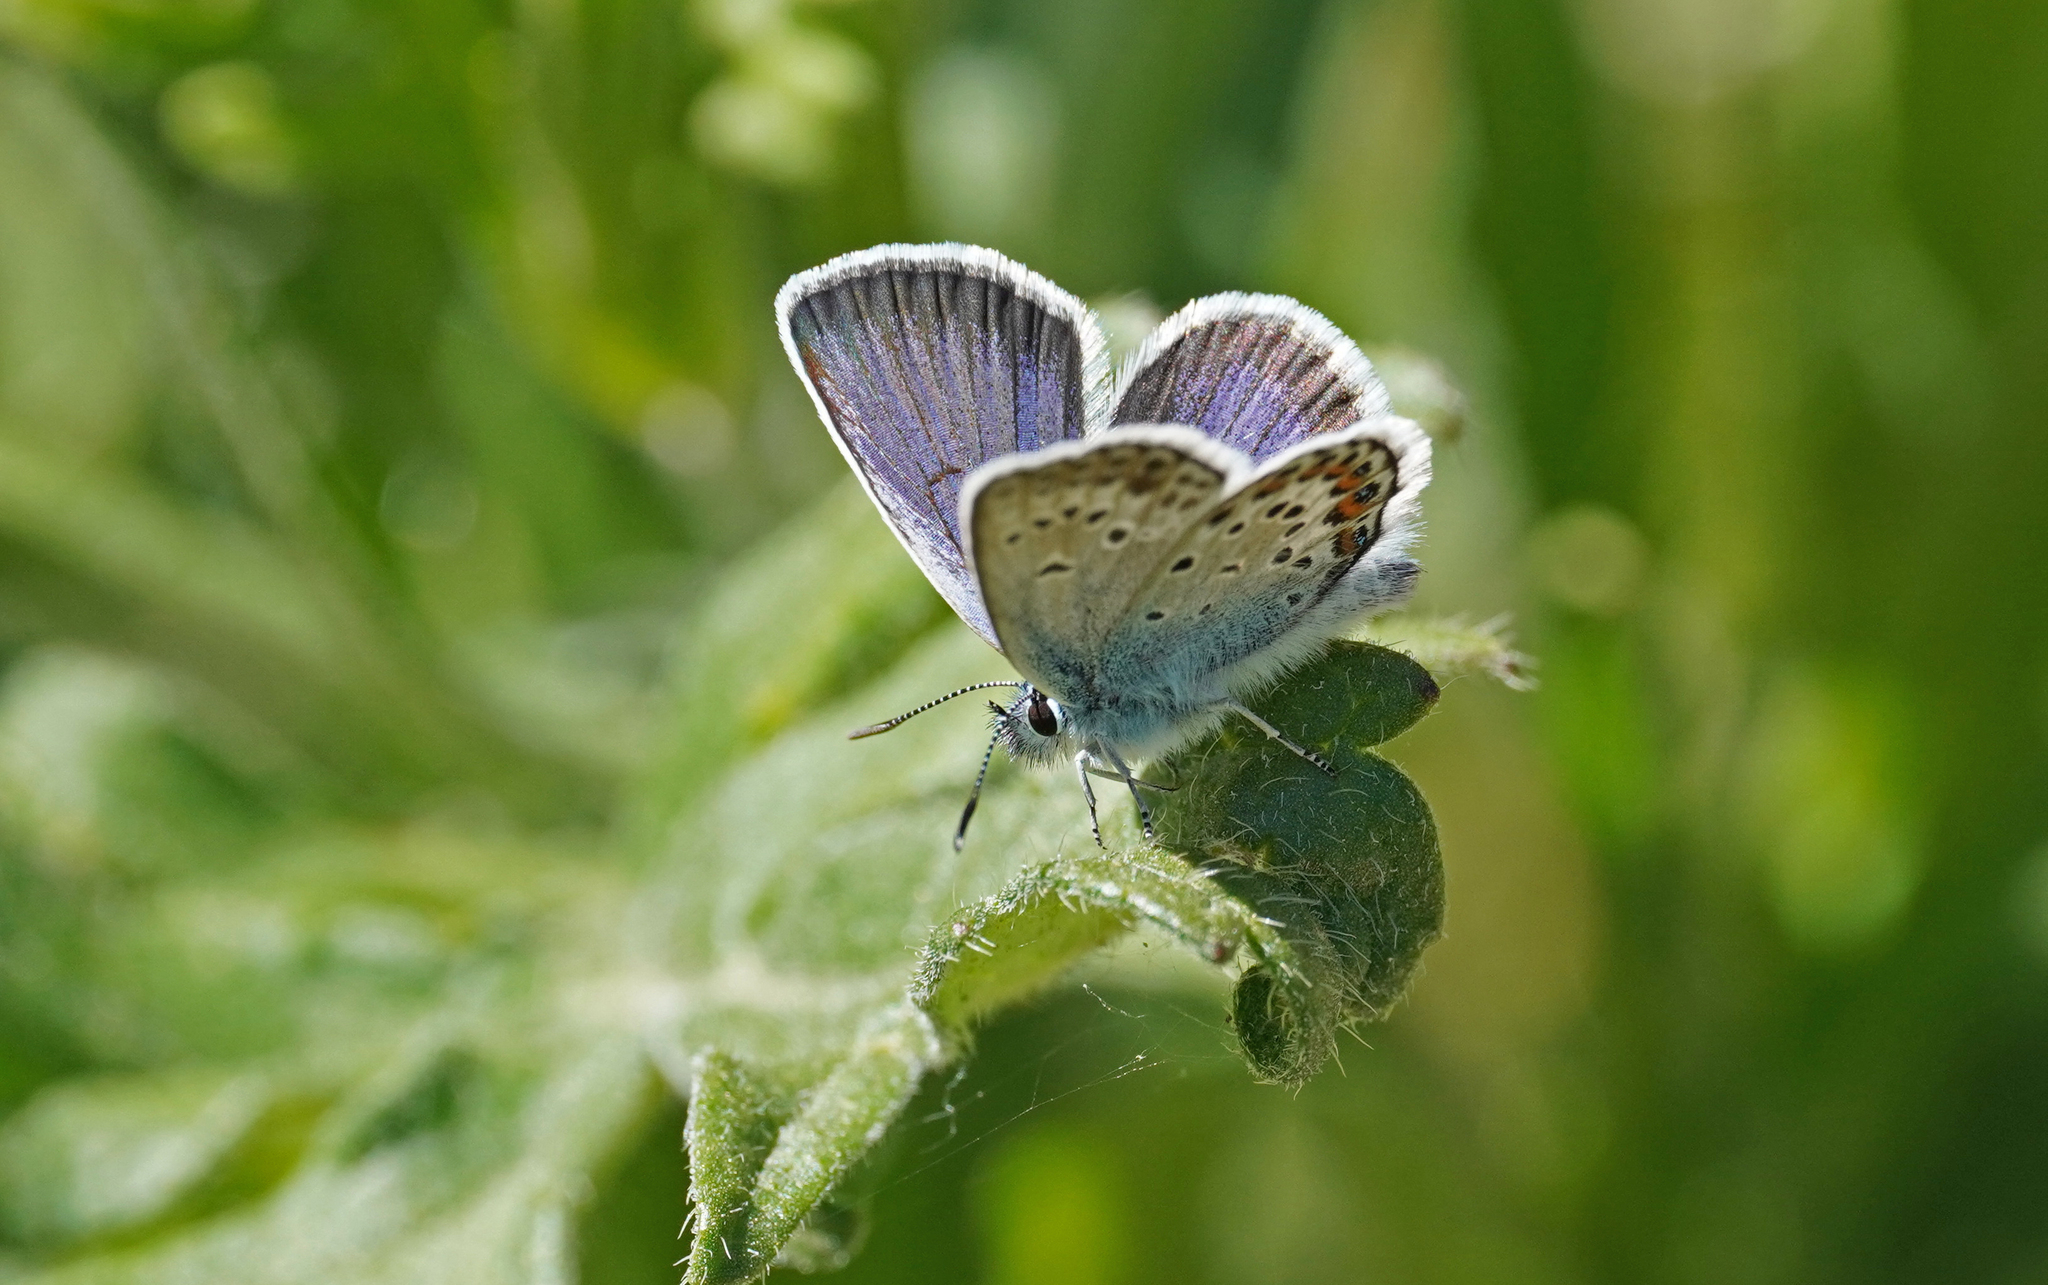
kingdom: Animalia
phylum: Arthropoda
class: Insecta
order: Lepidoptera
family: Lycaenidae
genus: Plebejus
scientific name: Plebejus argus
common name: Silver-studded blue
